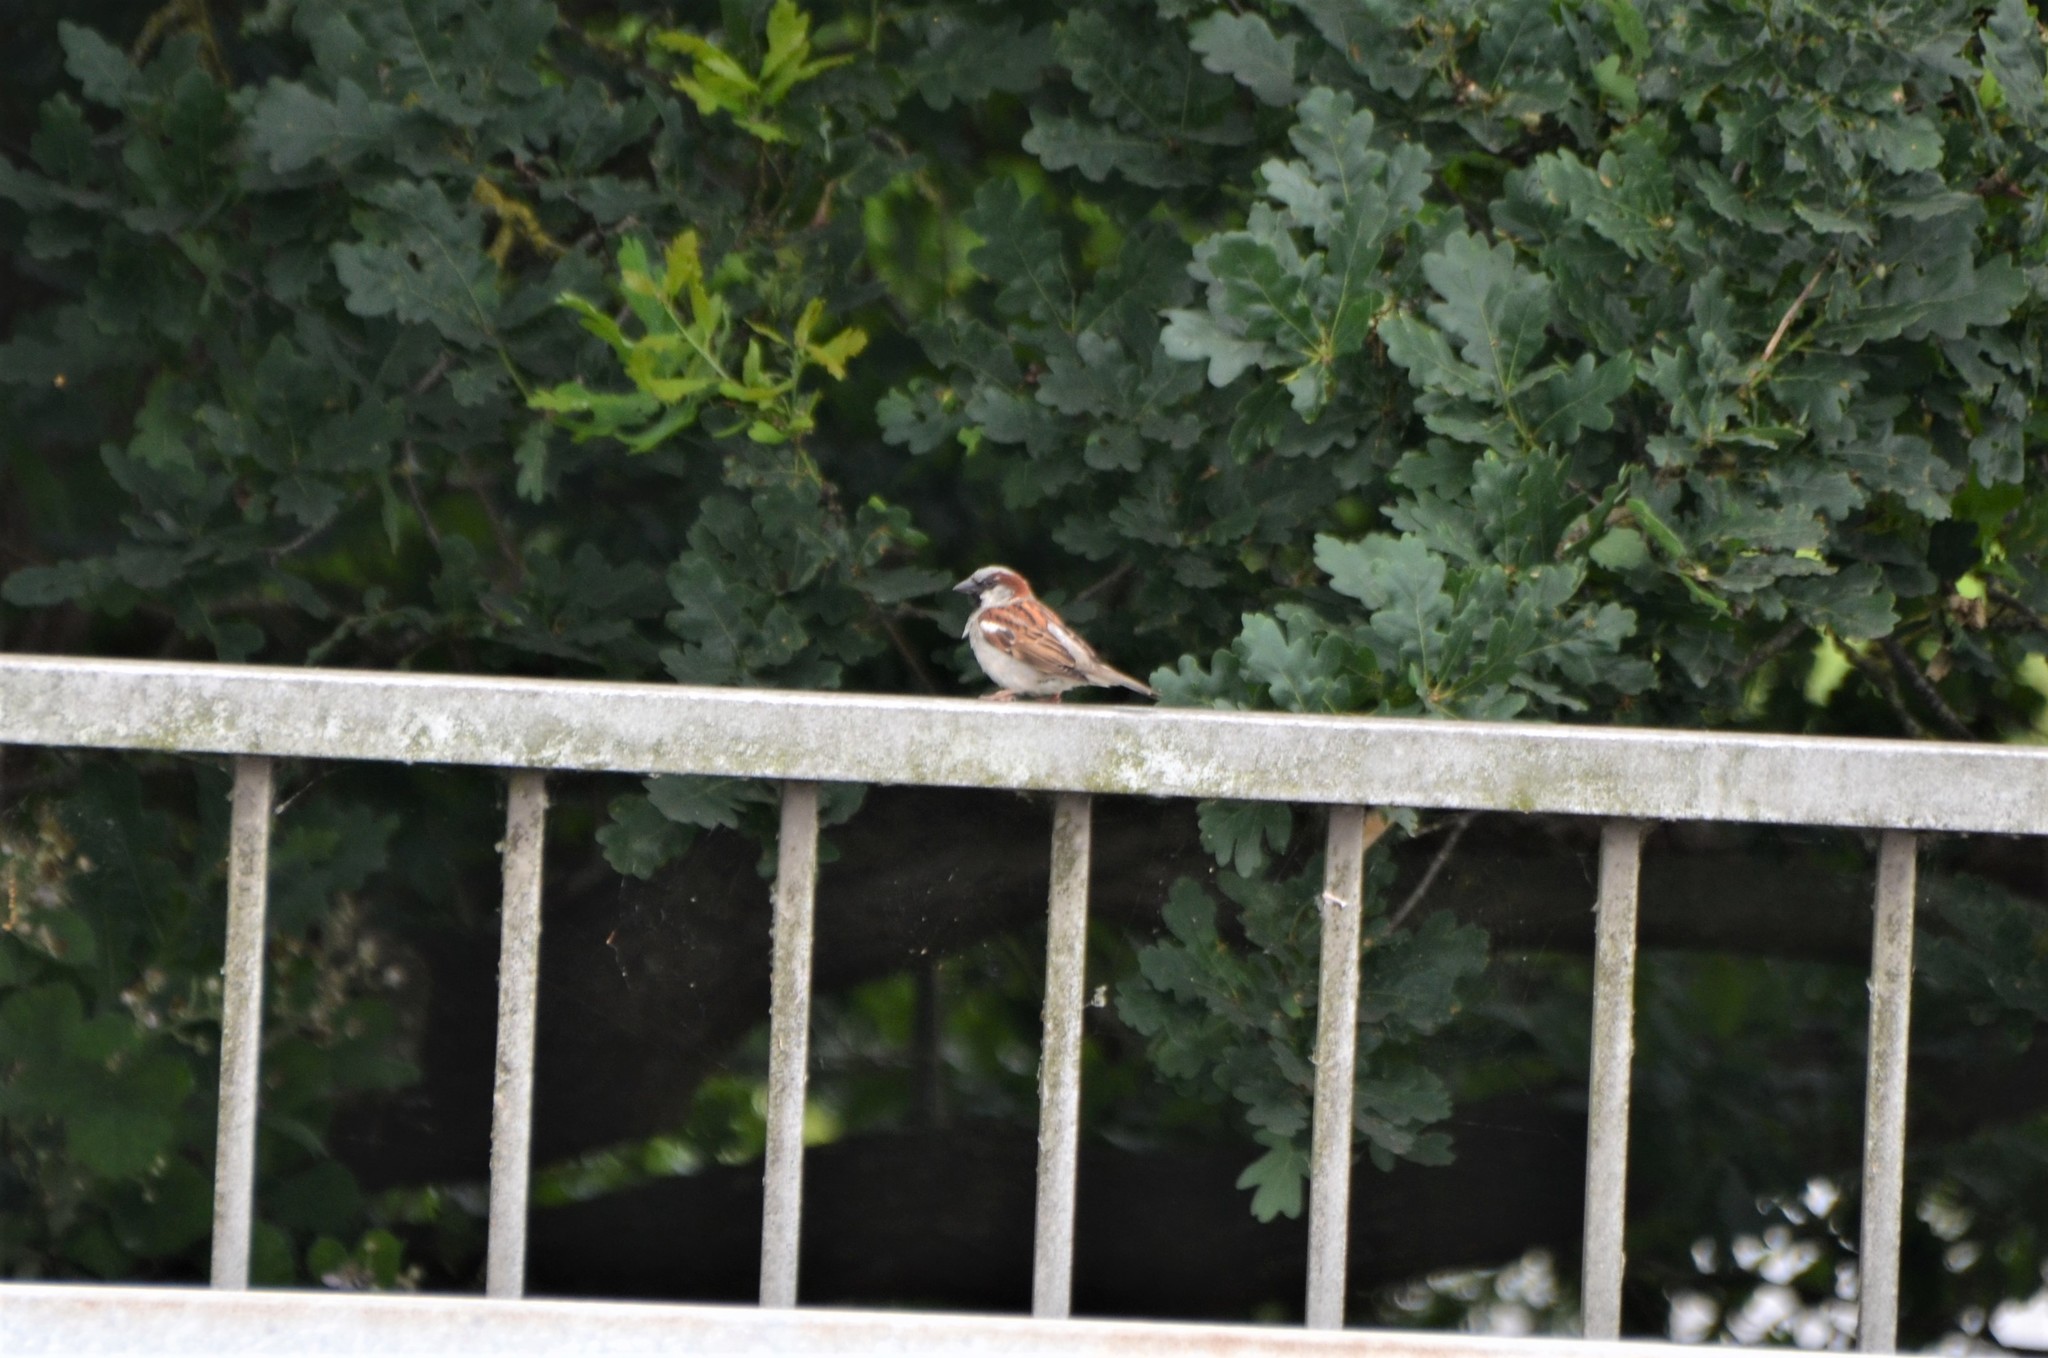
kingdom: Animalia
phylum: Chordata
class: Aves
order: Passeriformes
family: Passeridae
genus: Passer
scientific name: Passer domesticus
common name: House sparrow
